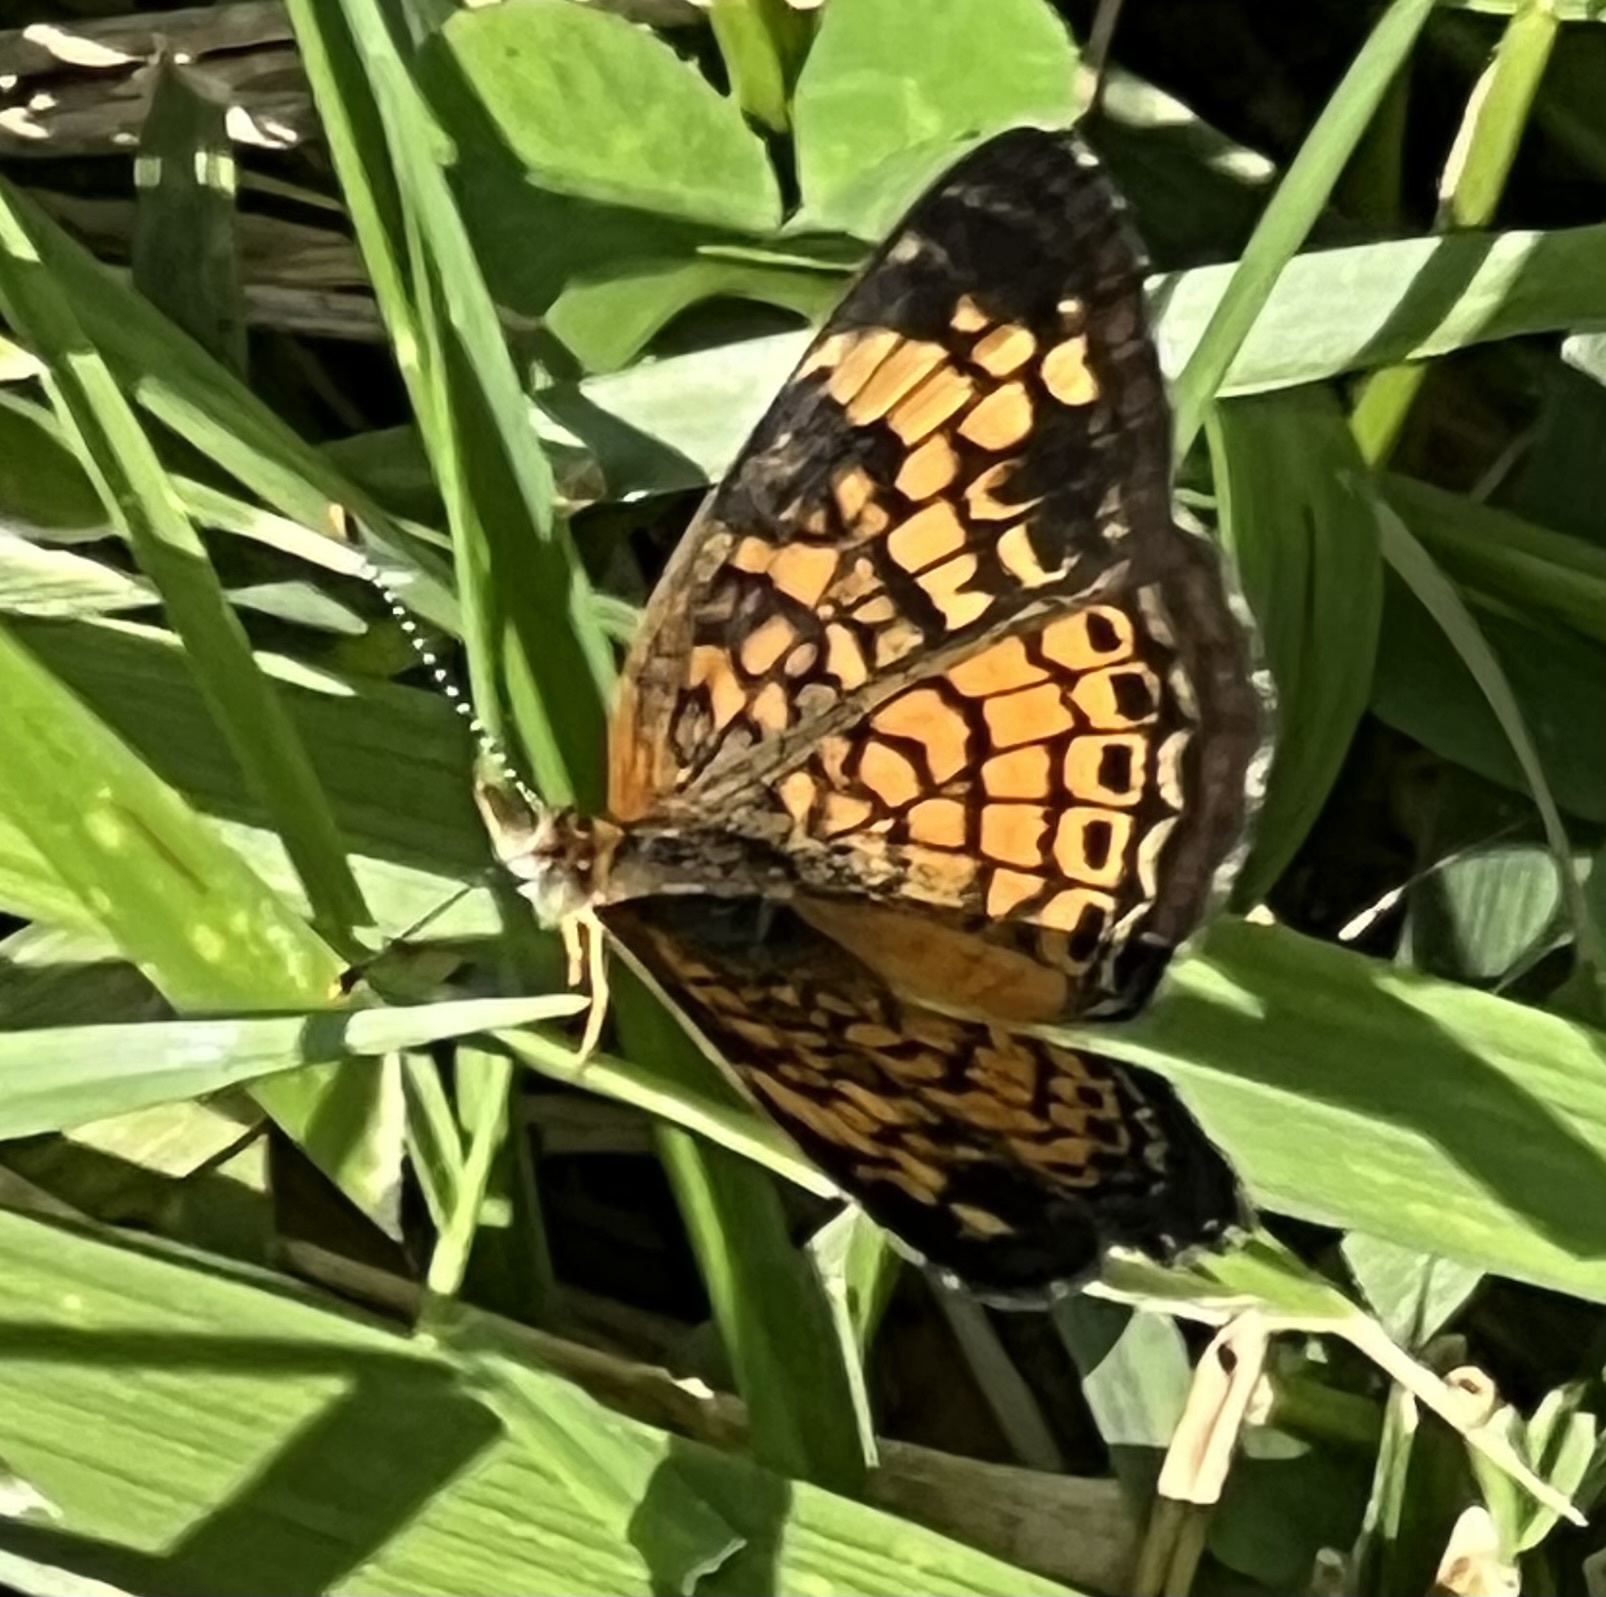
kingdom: Animalia
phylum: Arthropoda
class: Insecta
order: Lepidoptera
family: Nymphalidae
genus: Phyciodes
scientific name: Phyciodes tharos
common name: Pearl crescent
